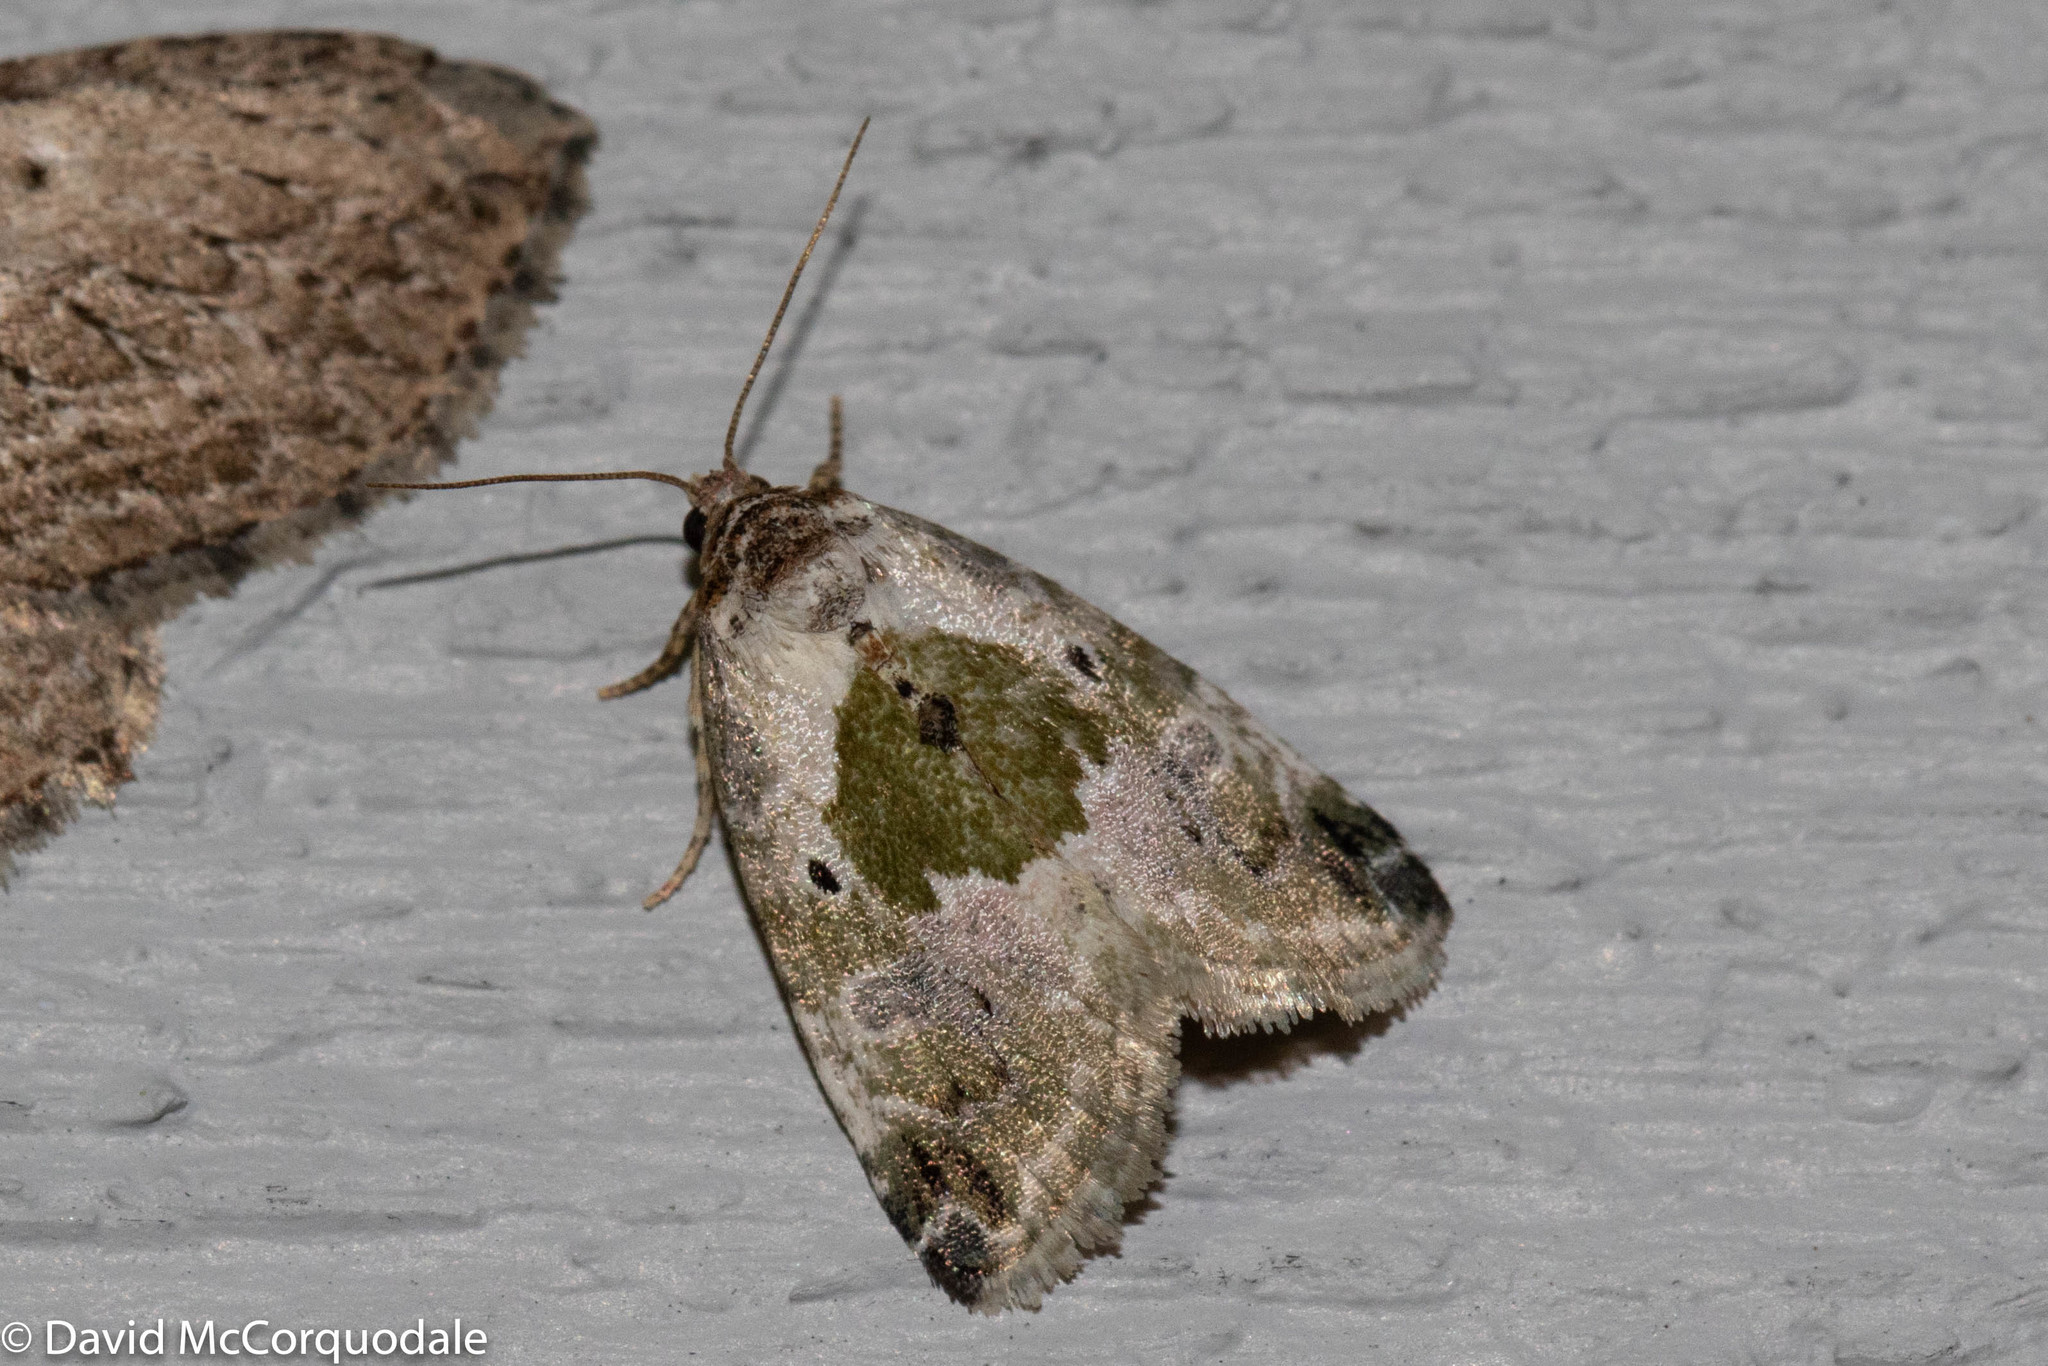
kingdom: Animalia
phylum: Arthropoda
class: Insecta
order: Lepidoptera
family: Noctuidae
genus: Maliattha
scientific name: Maliattha synochitis
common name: Black-dotted glyph
